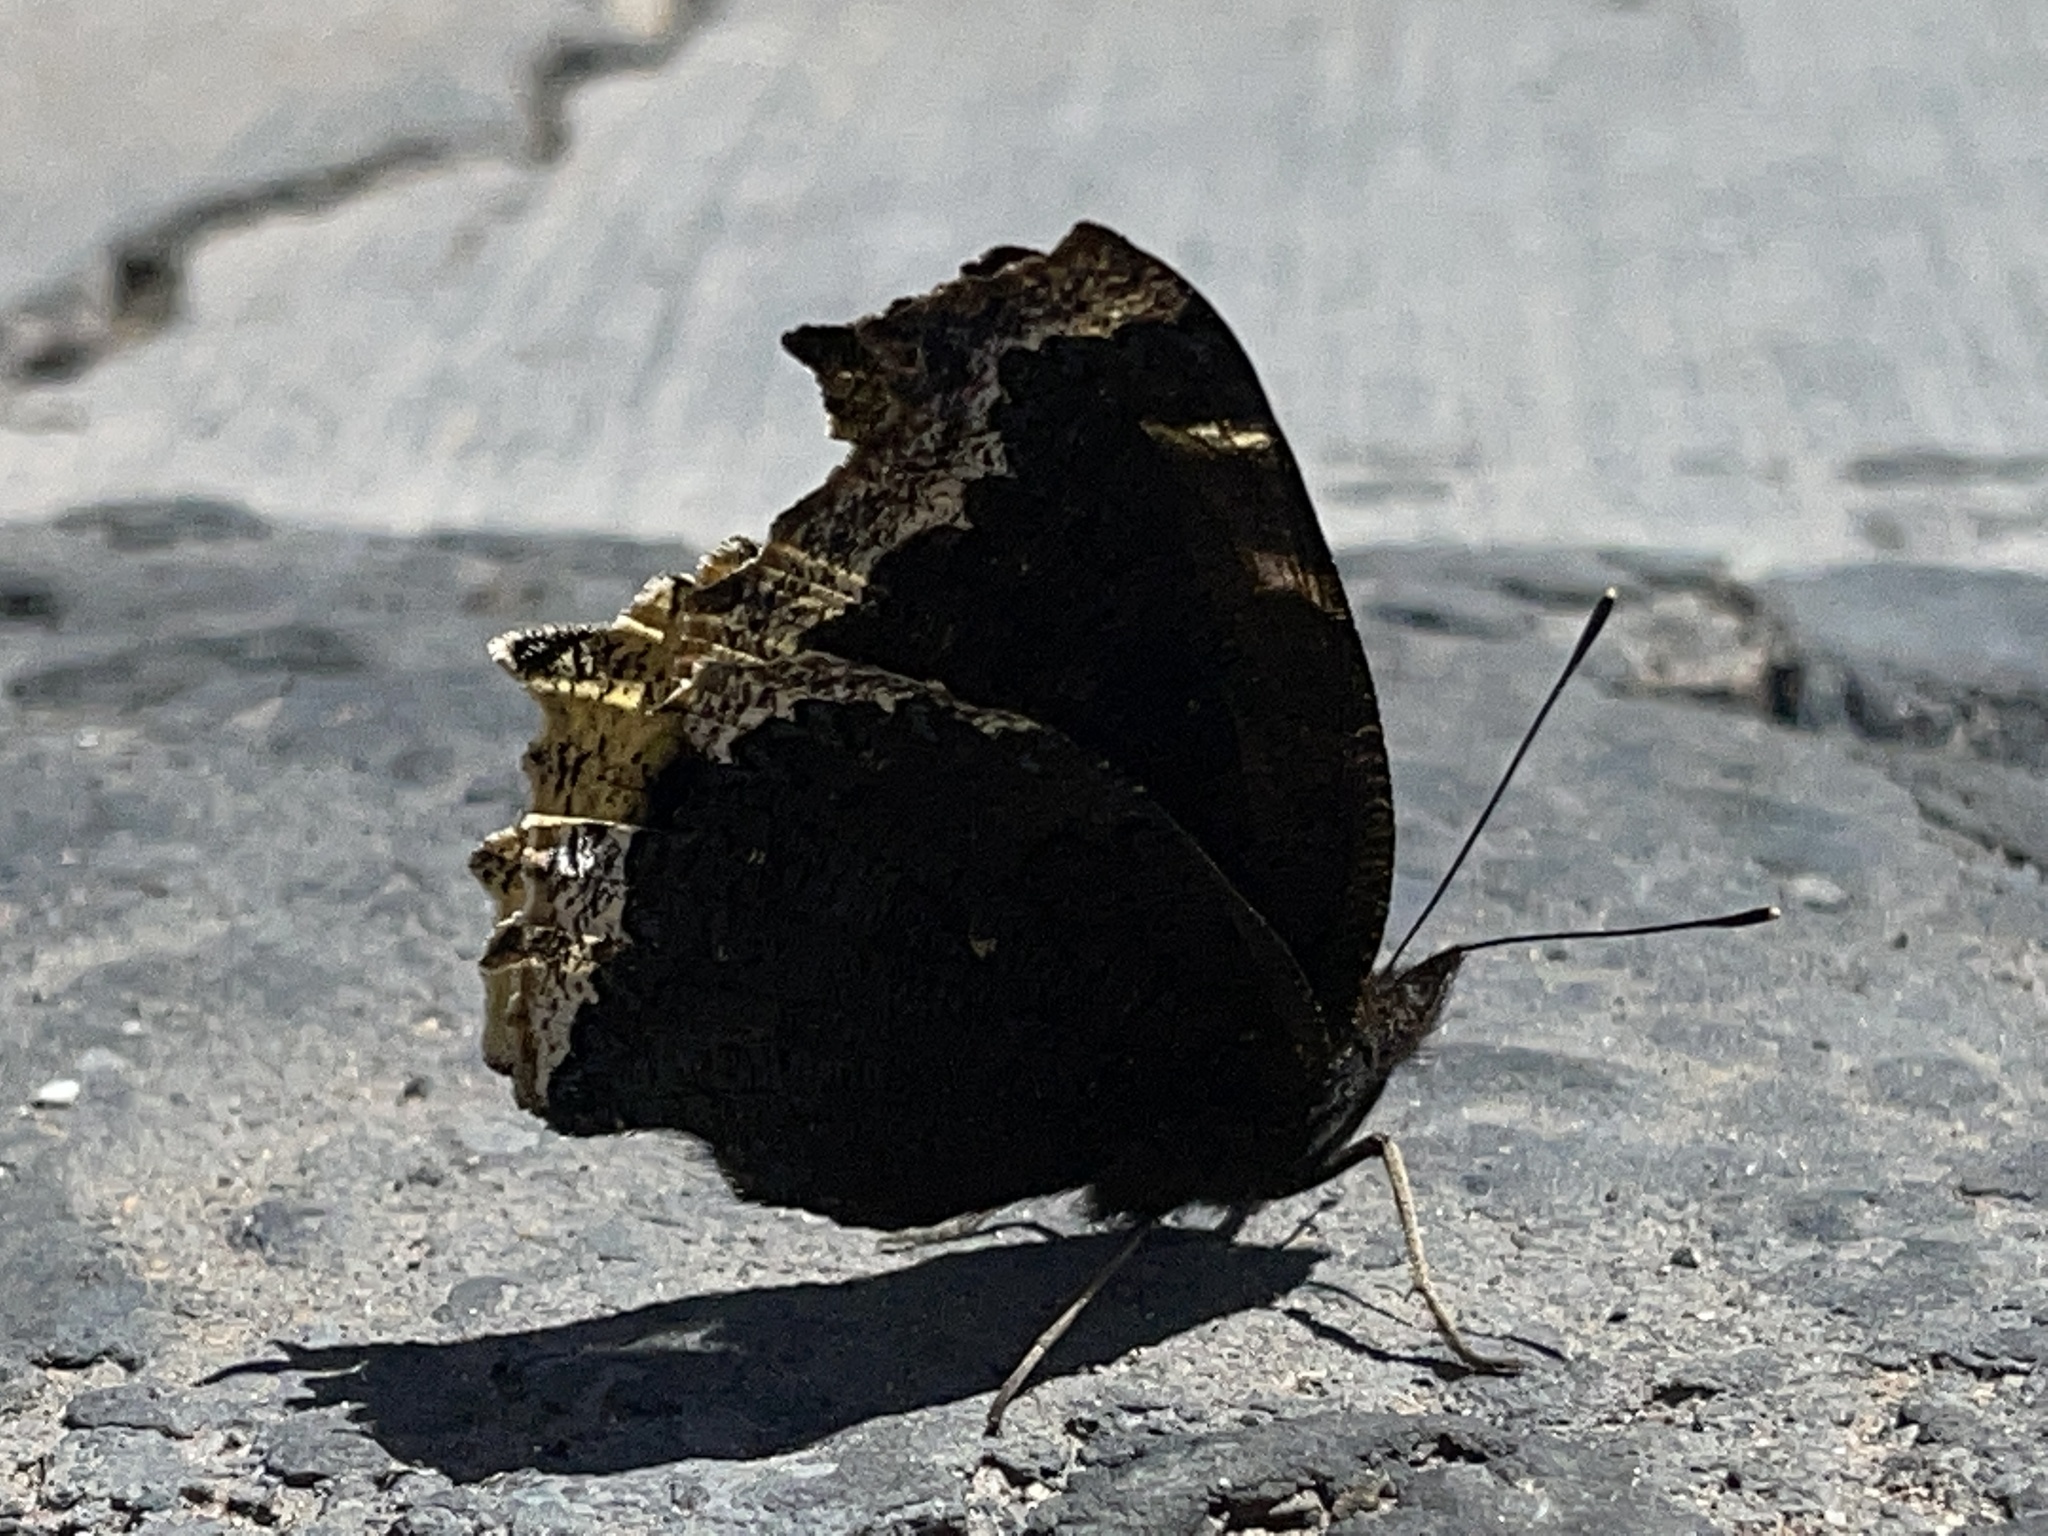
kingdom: Animalia
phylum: Arthropoda
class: Insecta
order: Lepidoptera
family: Nymphalidae
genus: Nymphalis
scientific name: Nymphalis antiopa
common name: Camberwell beauty
